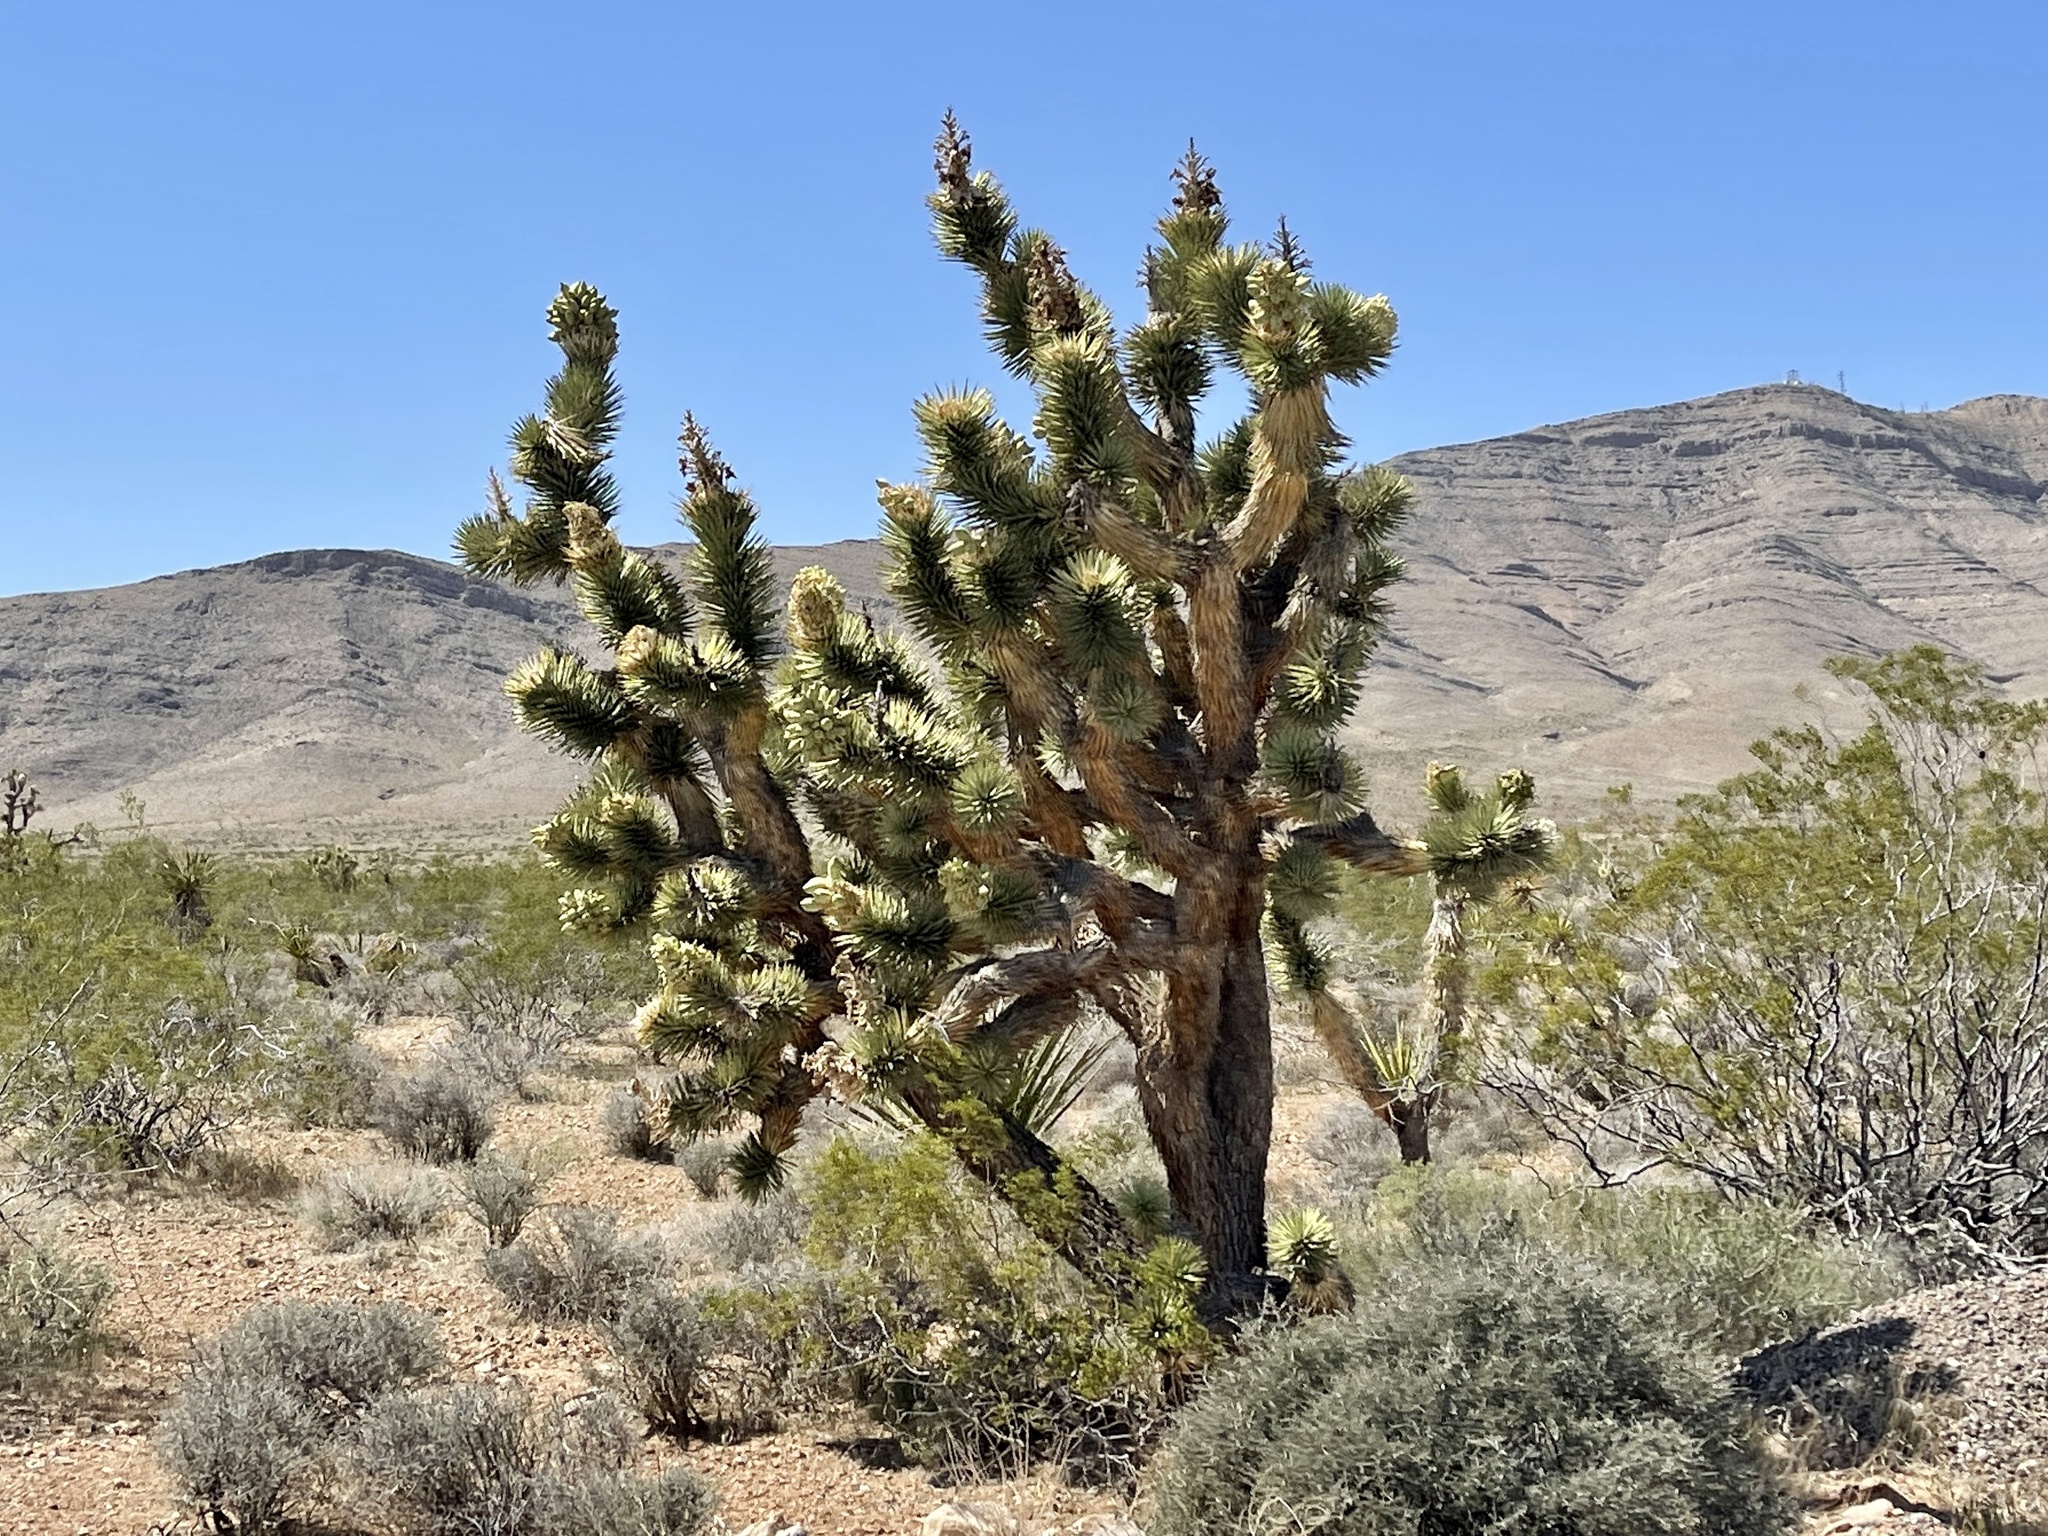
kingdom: Plantae
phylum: Tracheophyta
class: Liliopsida
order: Asparagales
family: Asparagaceae
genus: Yucca
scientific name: Yucca brevifolia
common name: Joshua tree
